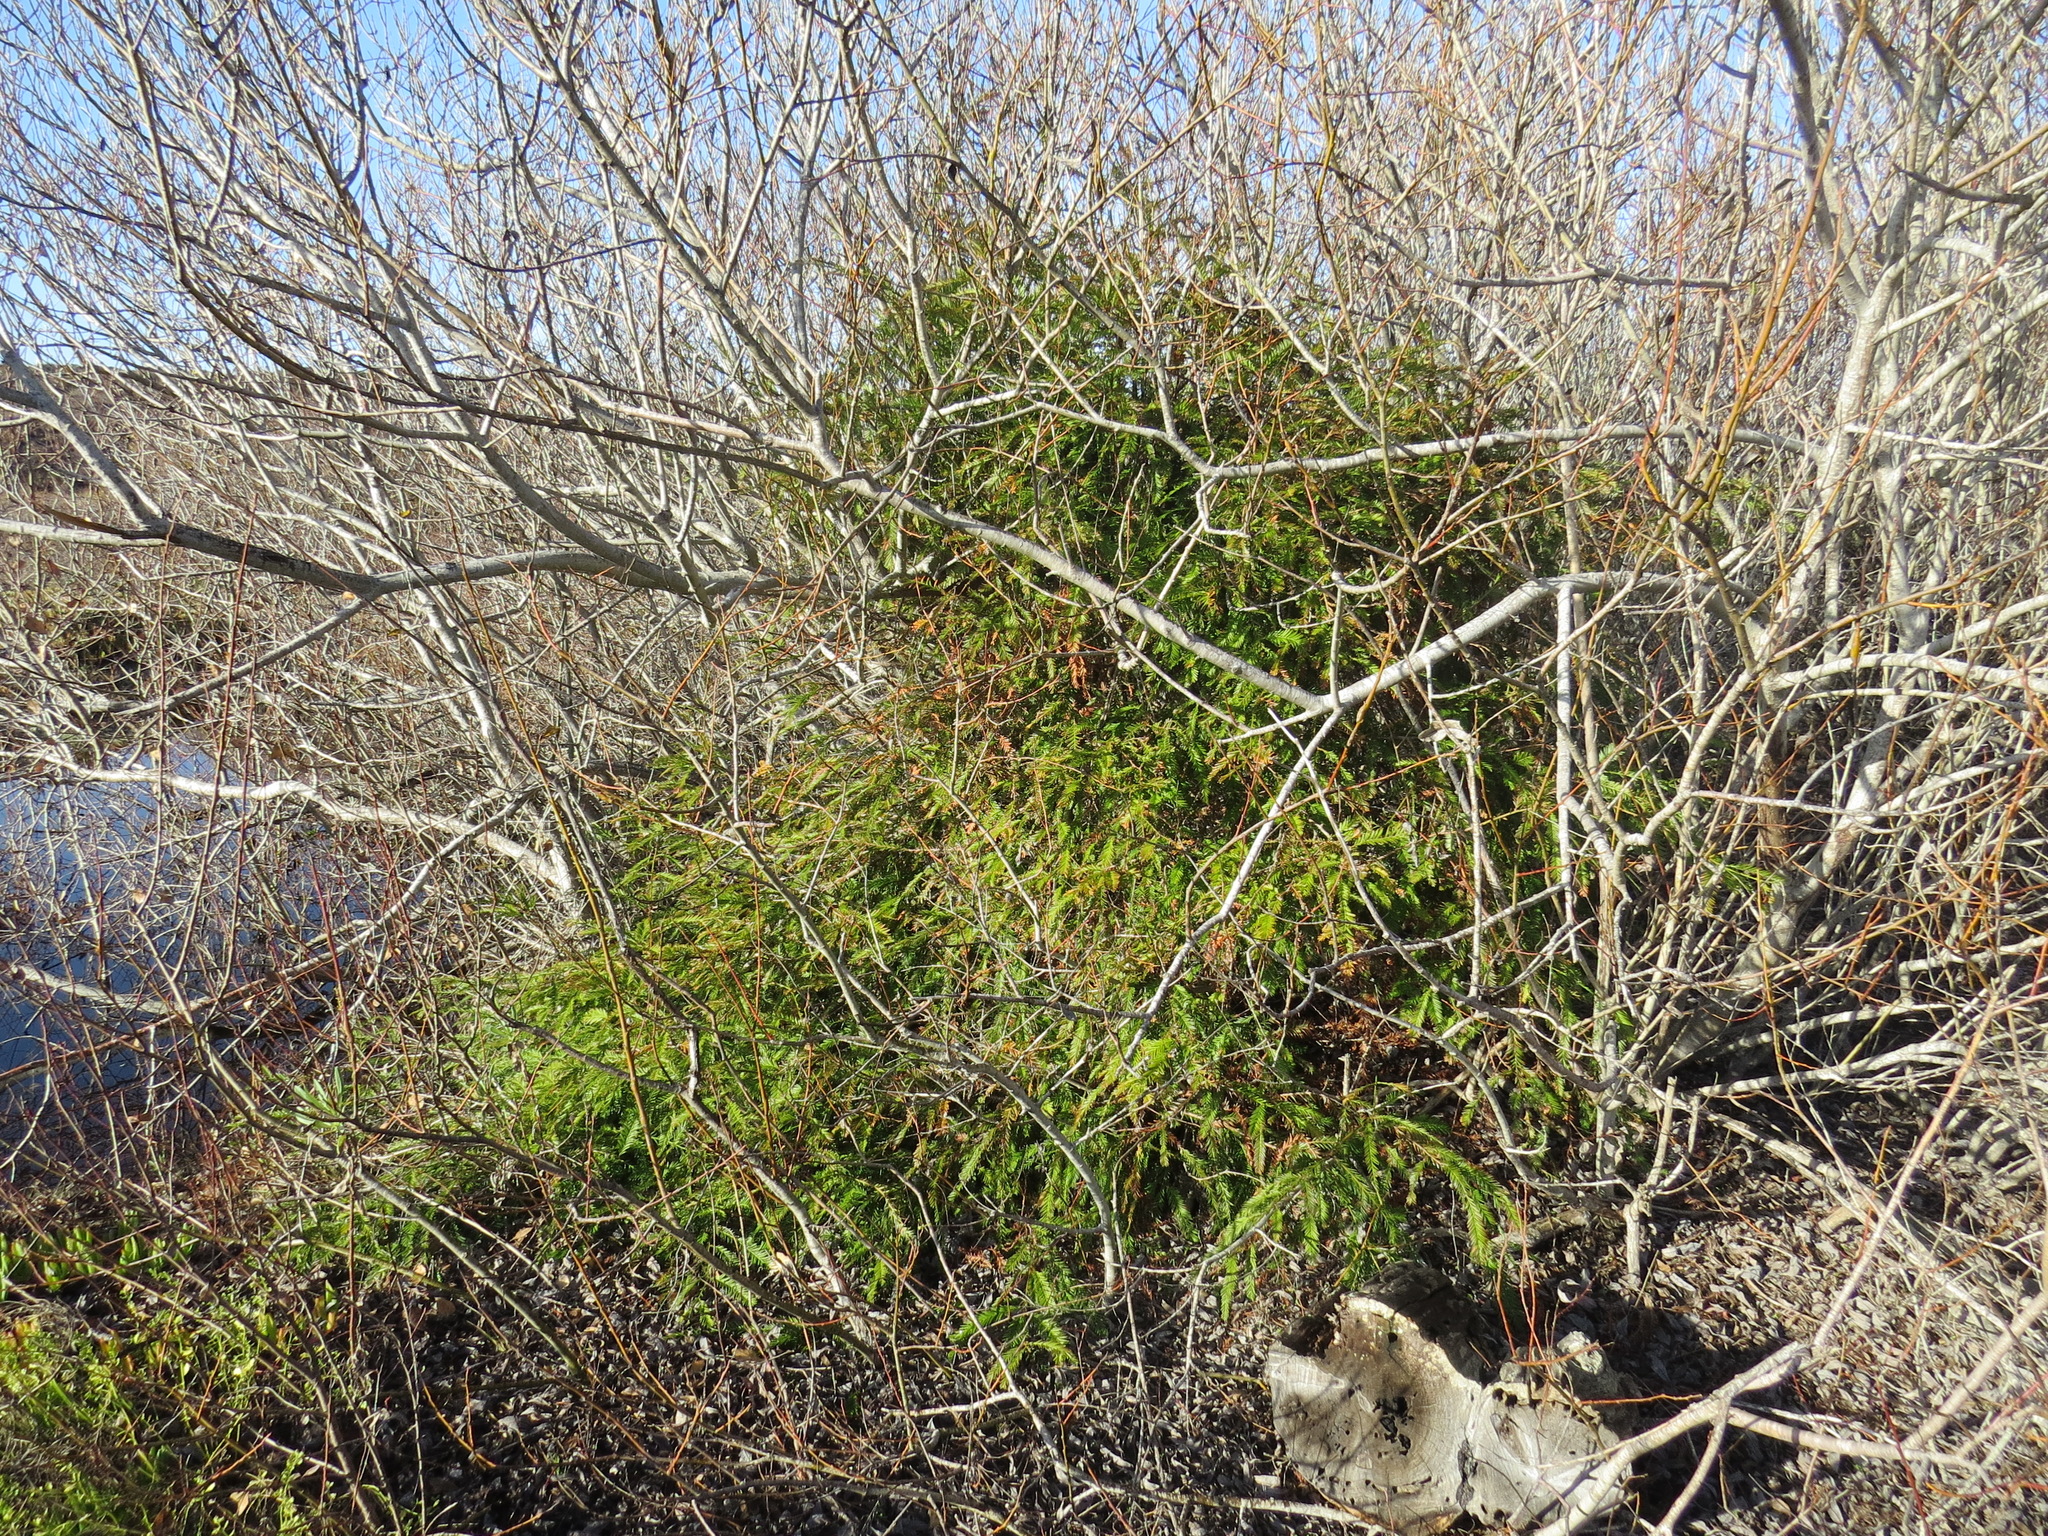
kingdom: Plantae
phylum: Tracheophyta
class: Pinopsida
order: Pinales
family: Cupressaceae
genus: Sequoia
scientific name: Sequoia sempervirens
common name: Coast redwood
